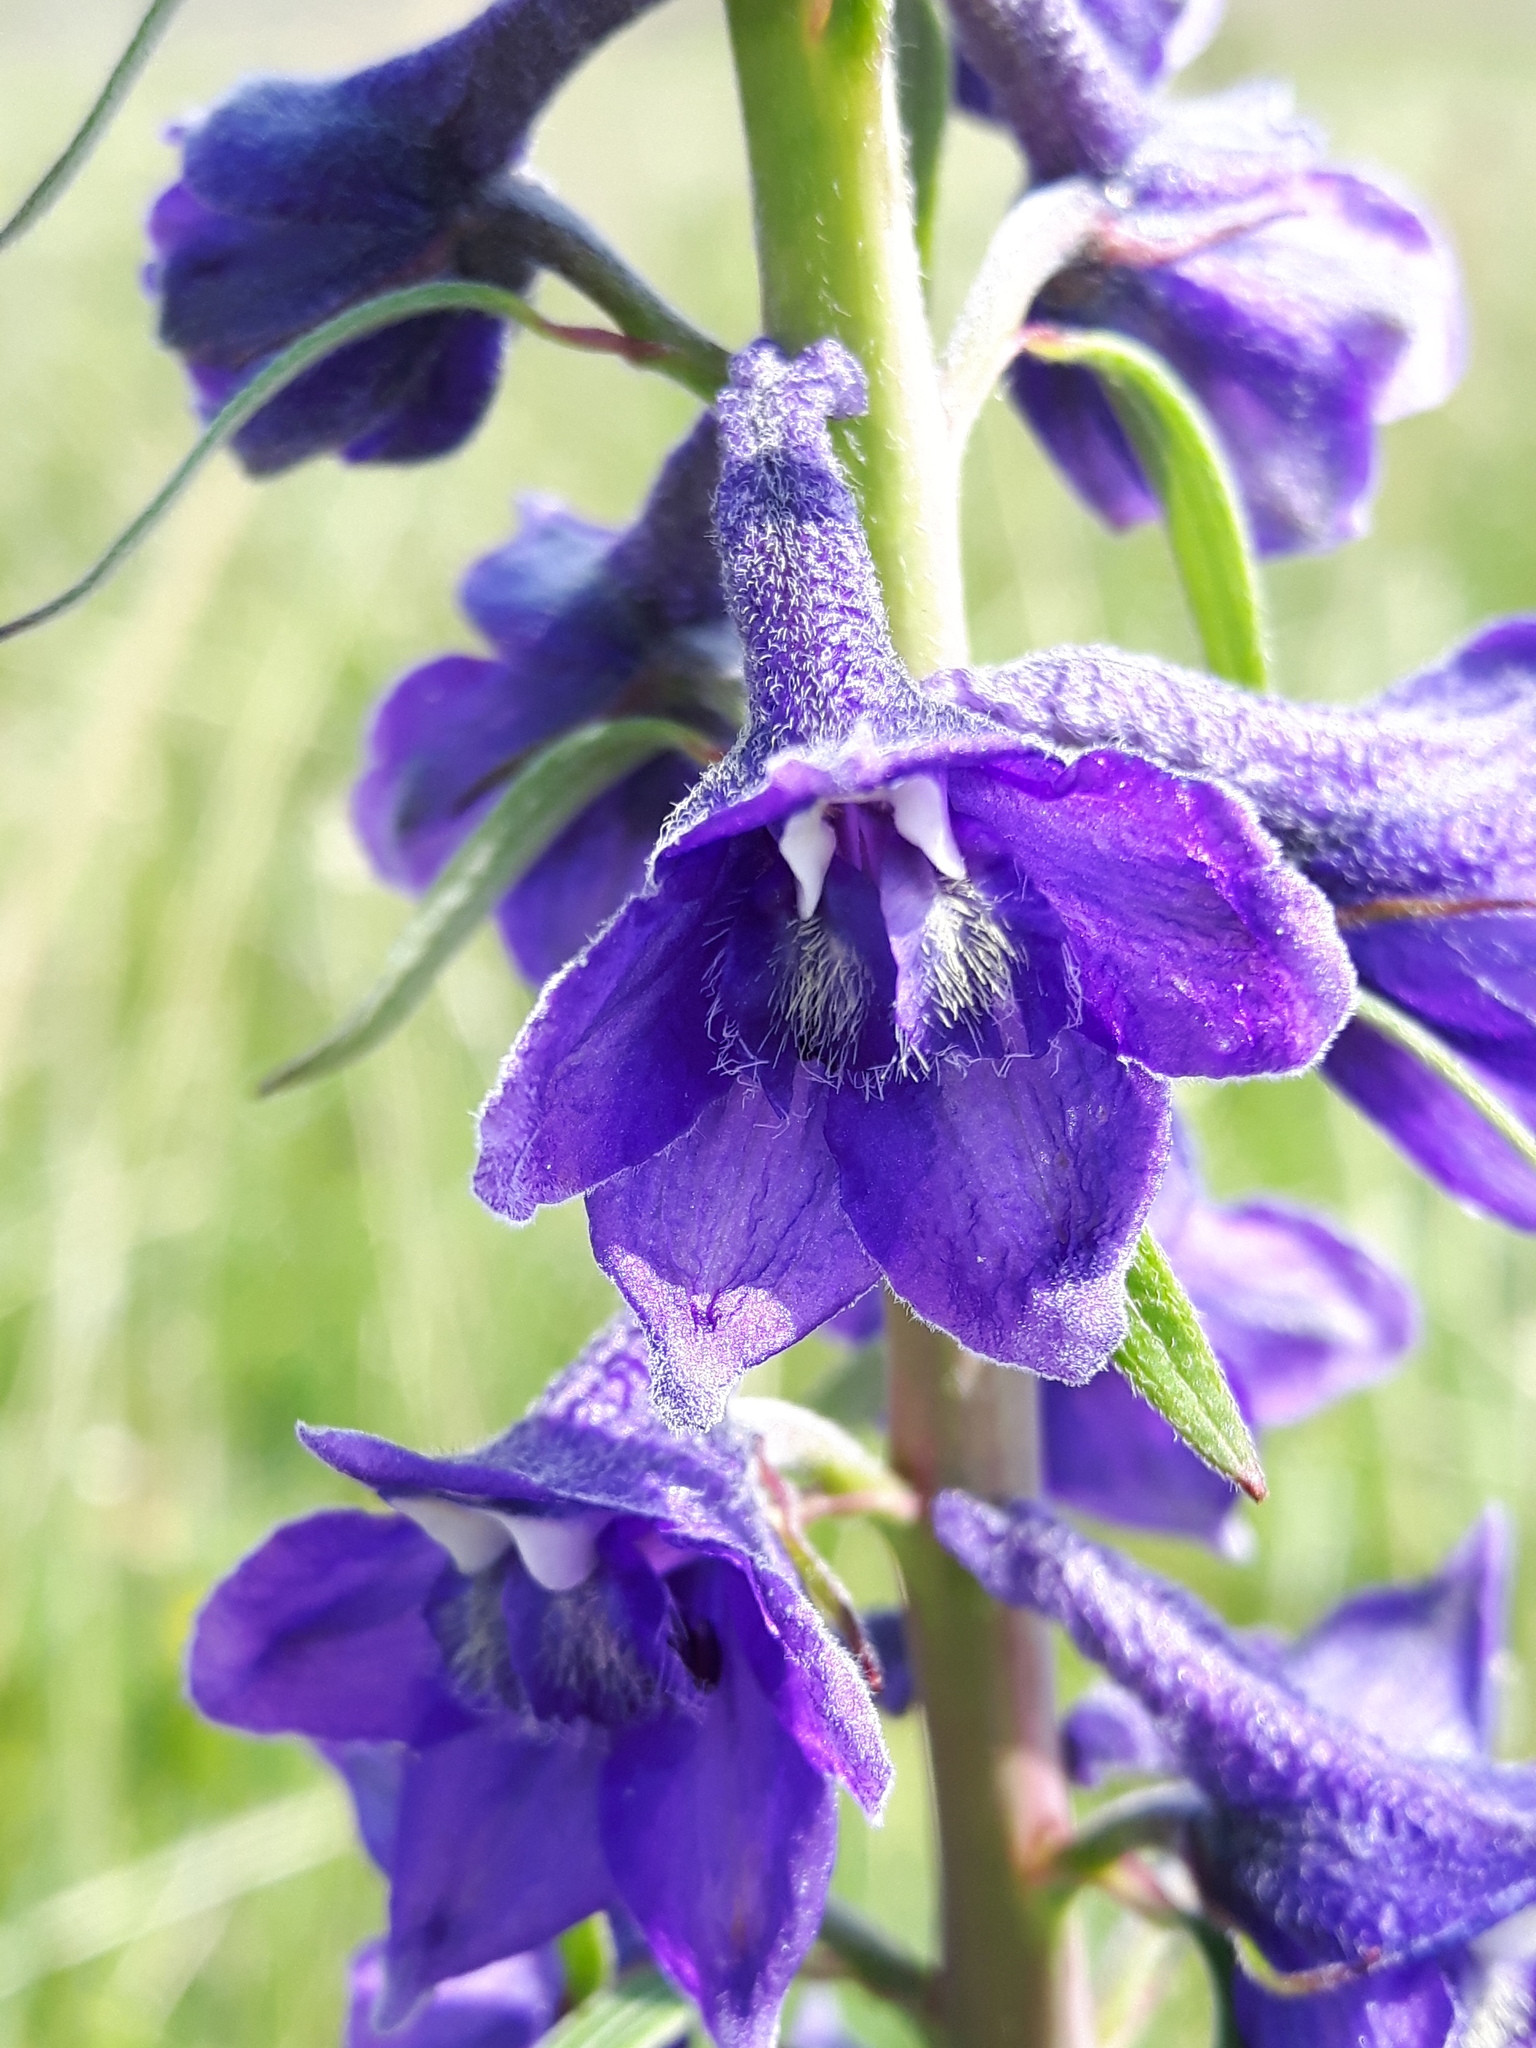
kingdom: Plantae
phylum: Tracheophyta
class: Magnoliopsida
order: Ranunculales
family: Ranunculaceae
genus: Delphinium
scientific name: Delphinium glaucum
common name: Brown's larkspur
